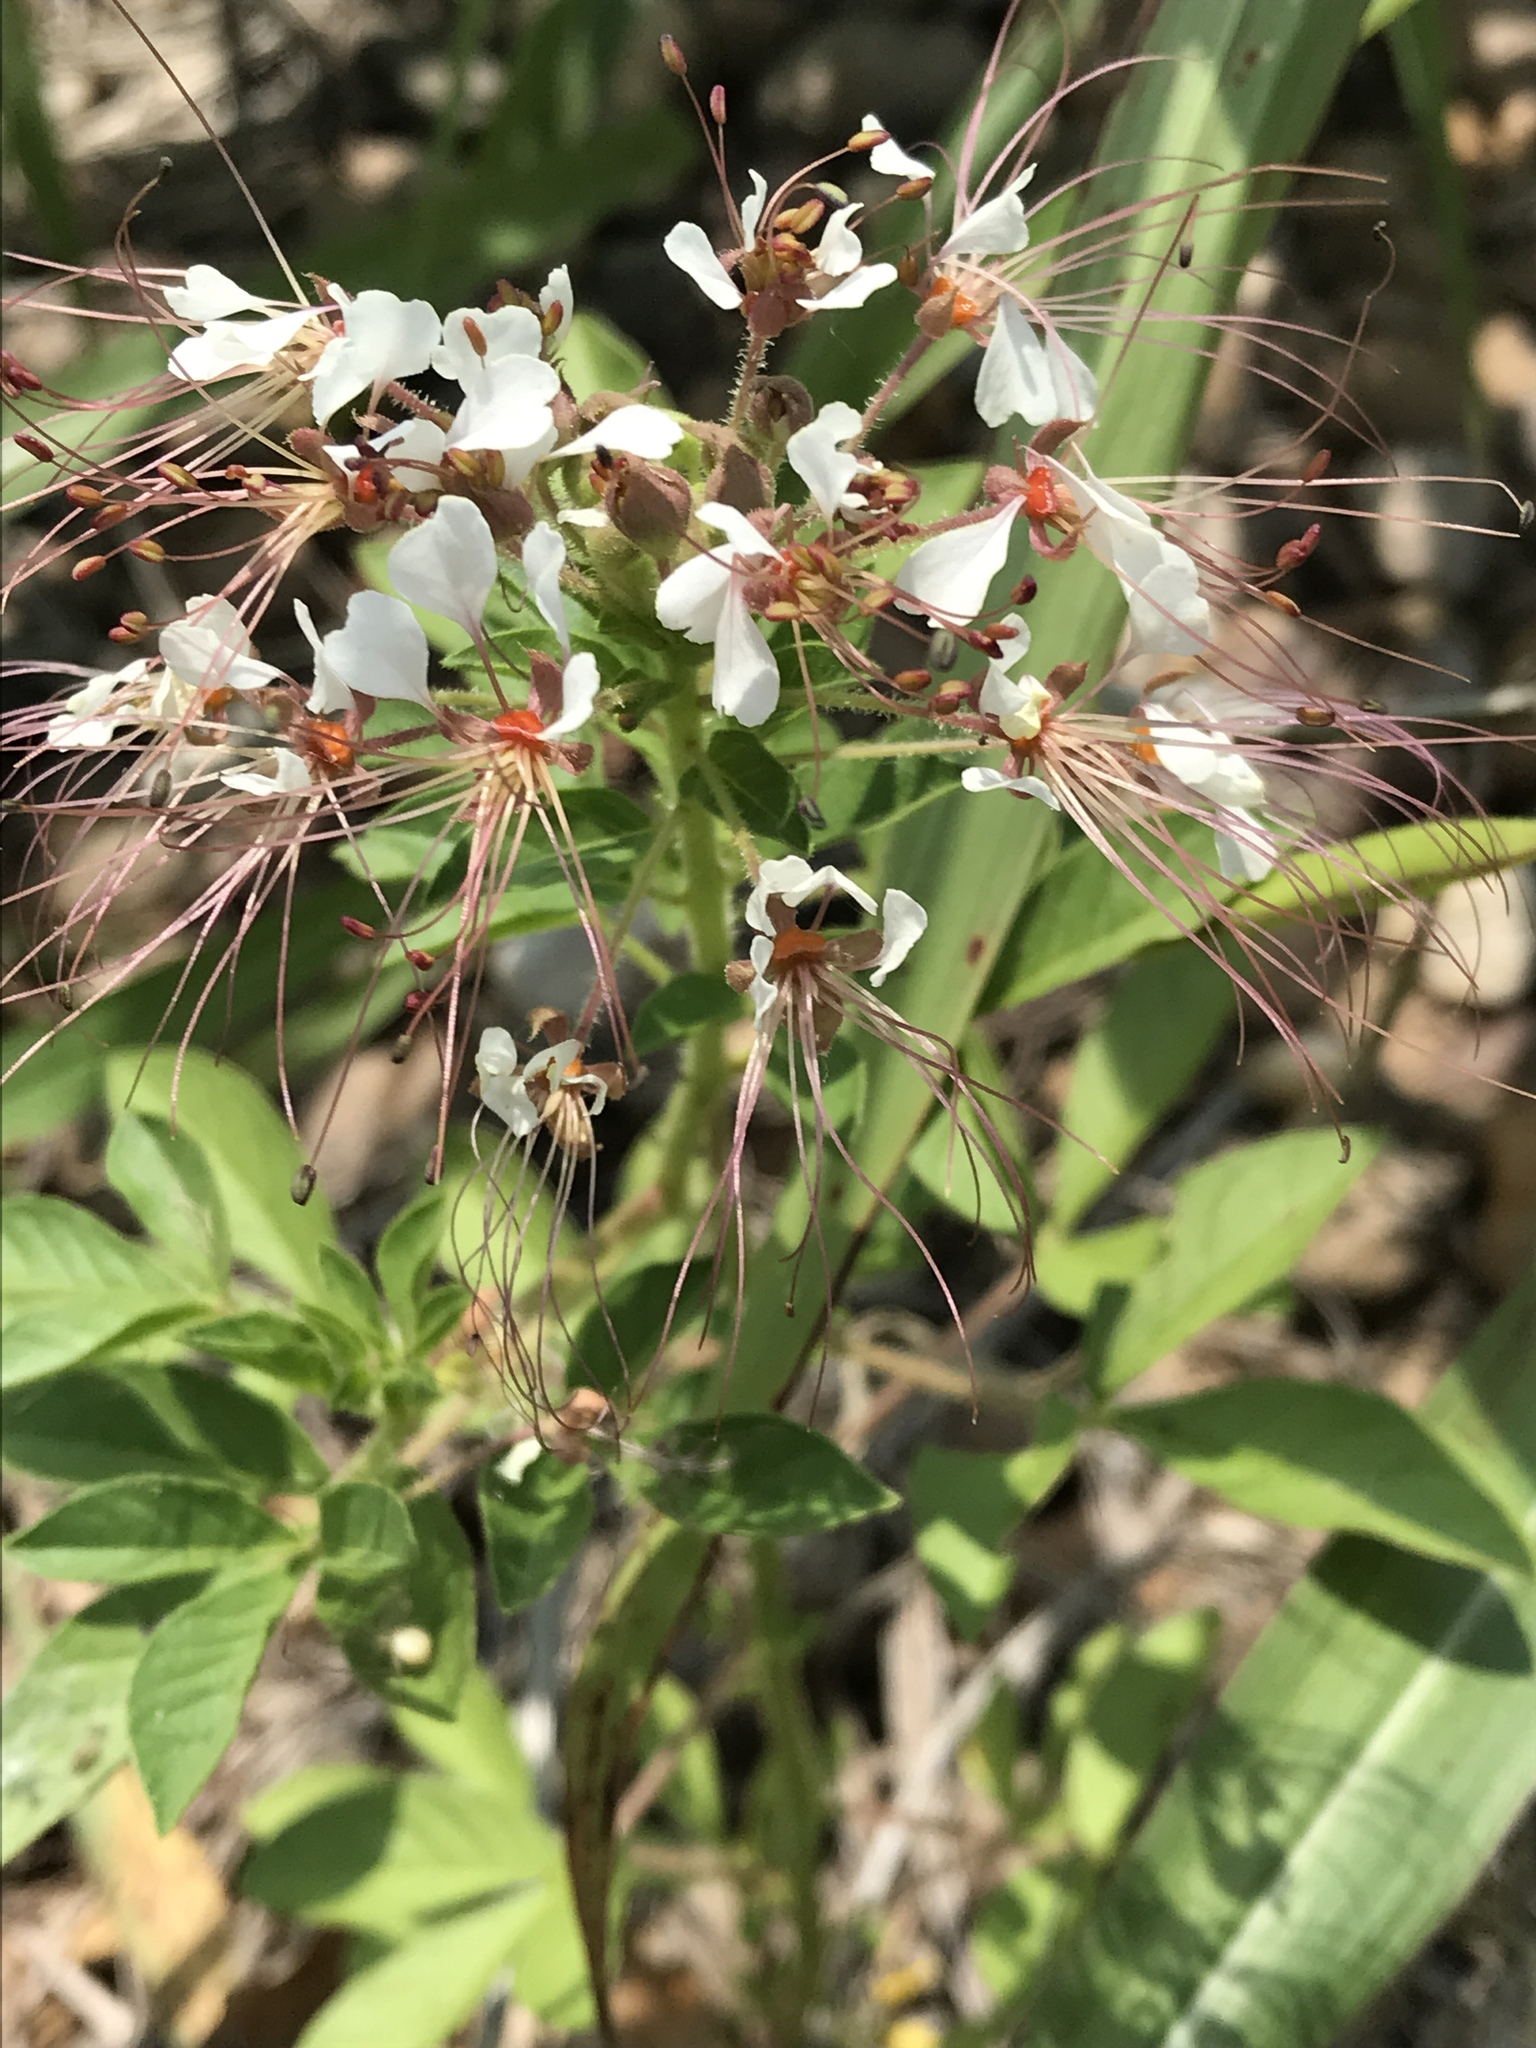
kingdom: Plantae
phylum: Tracheophyta
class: Magnoliopsida
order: Brassicales
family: Cleomaceae
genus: Polanisia
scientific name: Polanisia dodecandra
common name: Clammyweed
